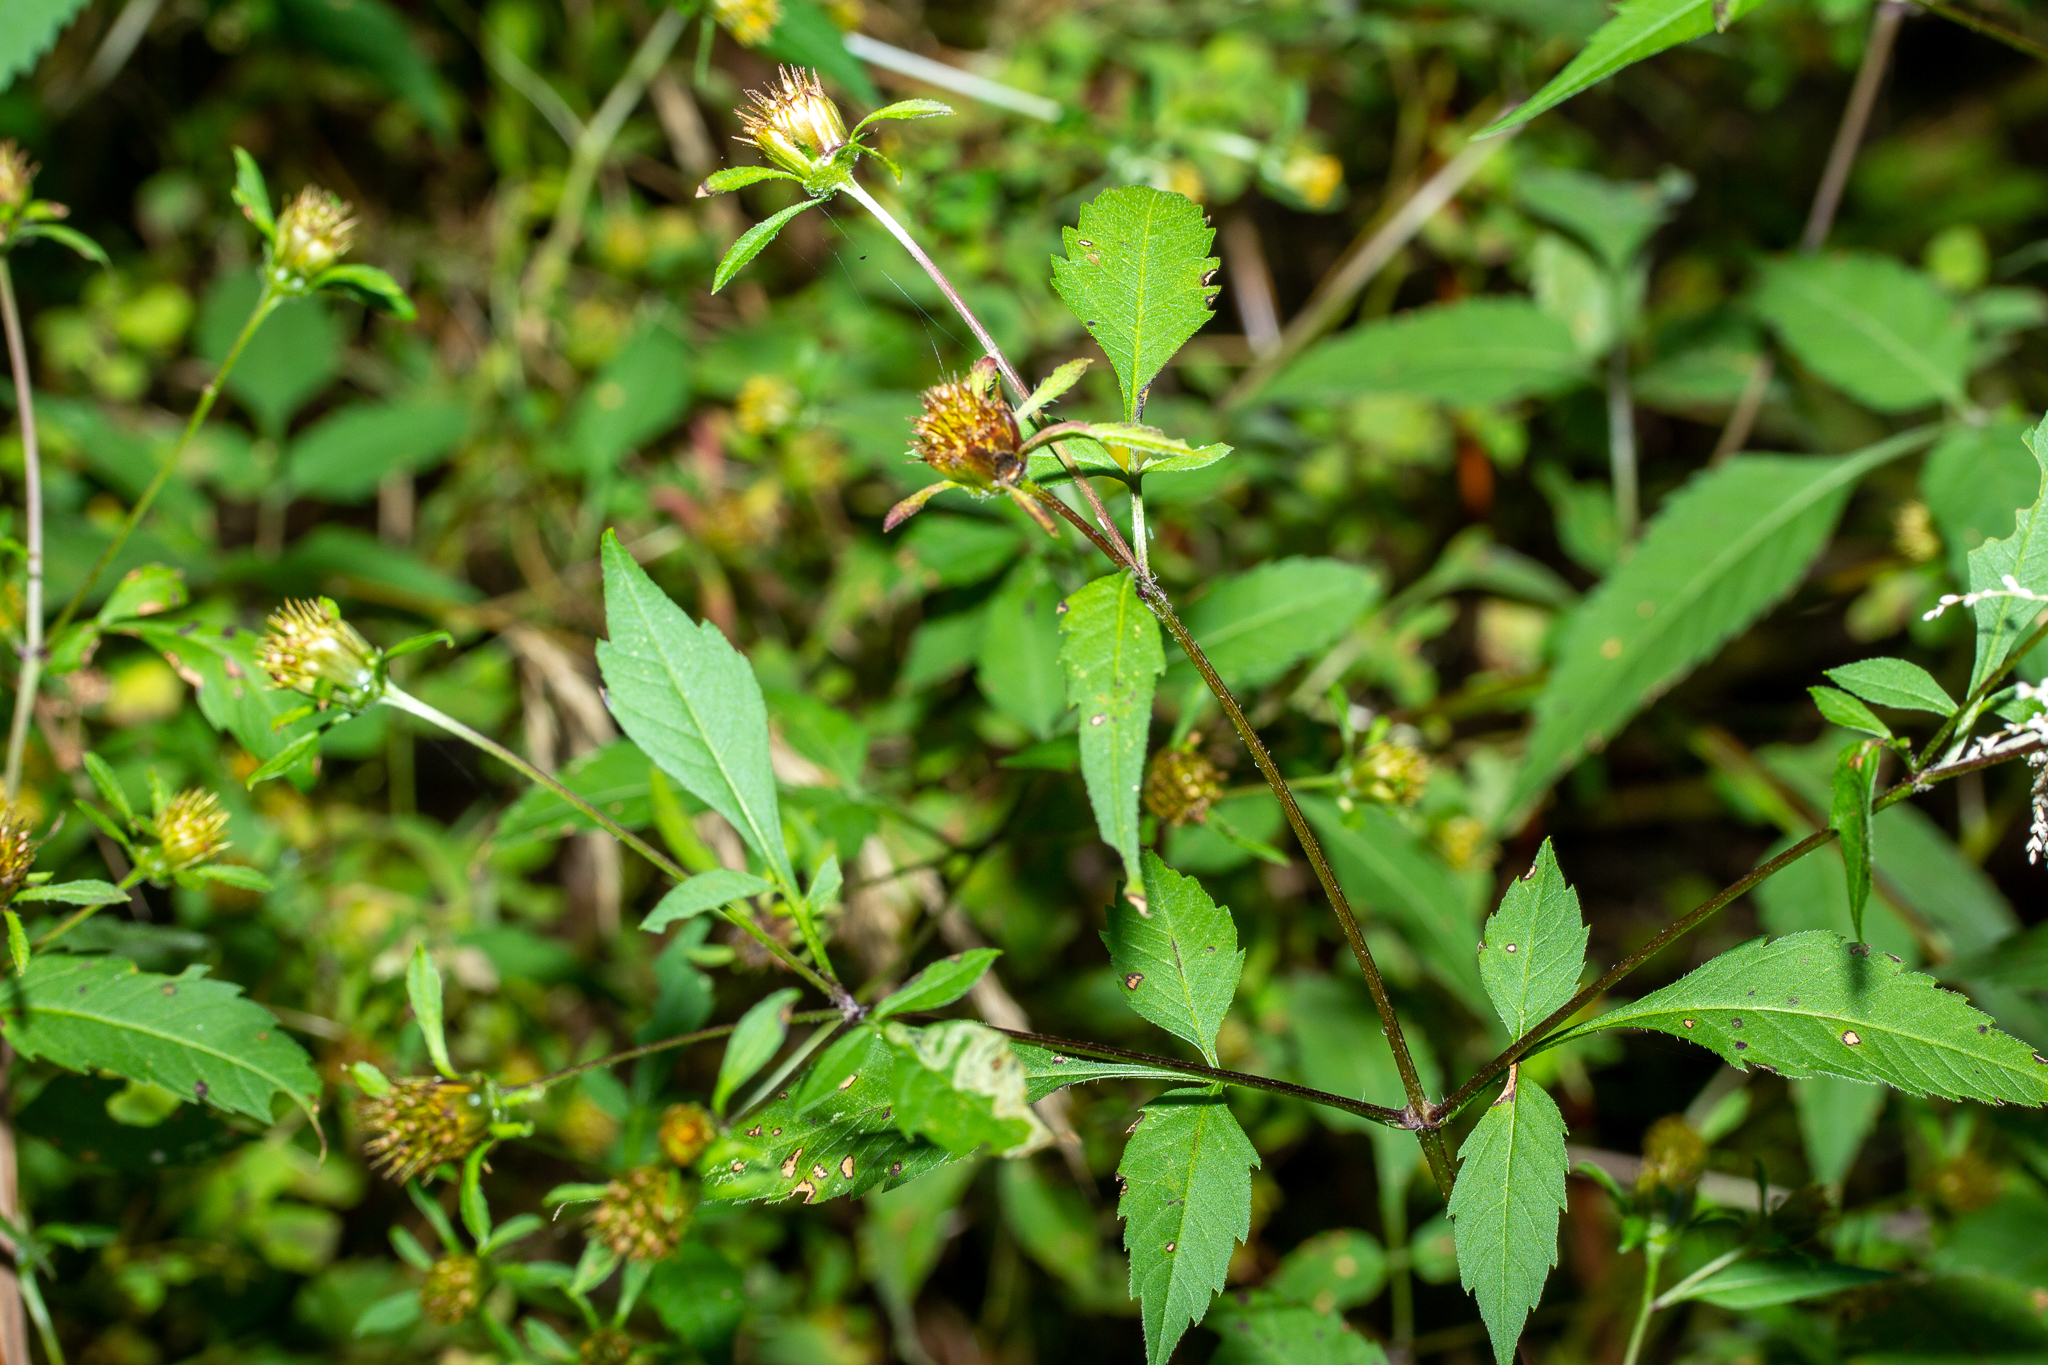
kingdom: Plantae
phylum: Tracheophyta
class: Magnoliopsida
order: Asterales
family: Asteraceae
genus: Bidens
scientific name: Bidens frondosa
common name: Beggarticks
